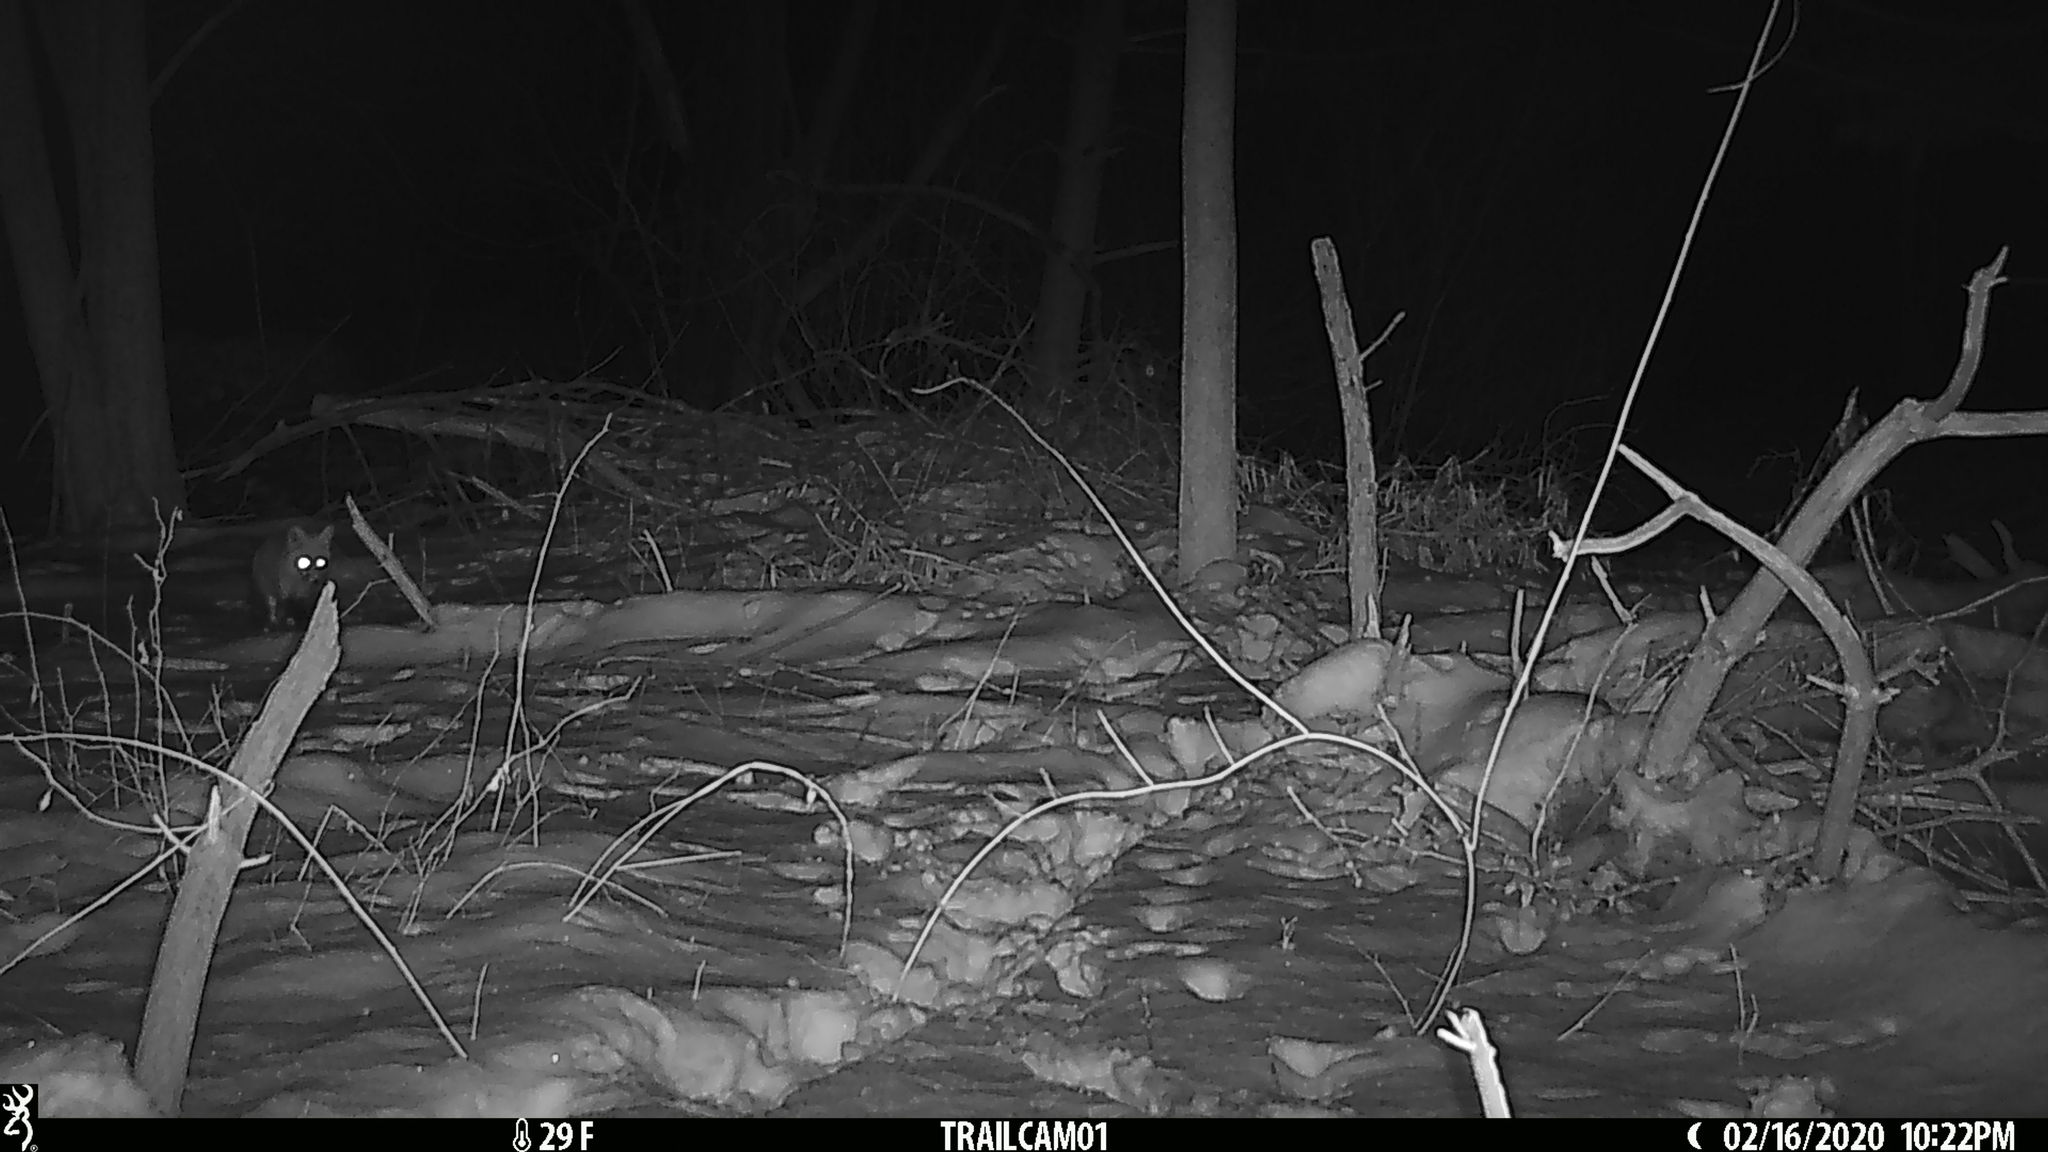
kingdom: Animalia
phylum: Chordata
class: Mammalia
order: Carnivora
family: Canidae
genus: Vulpes
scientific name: Vulpes vulpes
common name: Red fox
